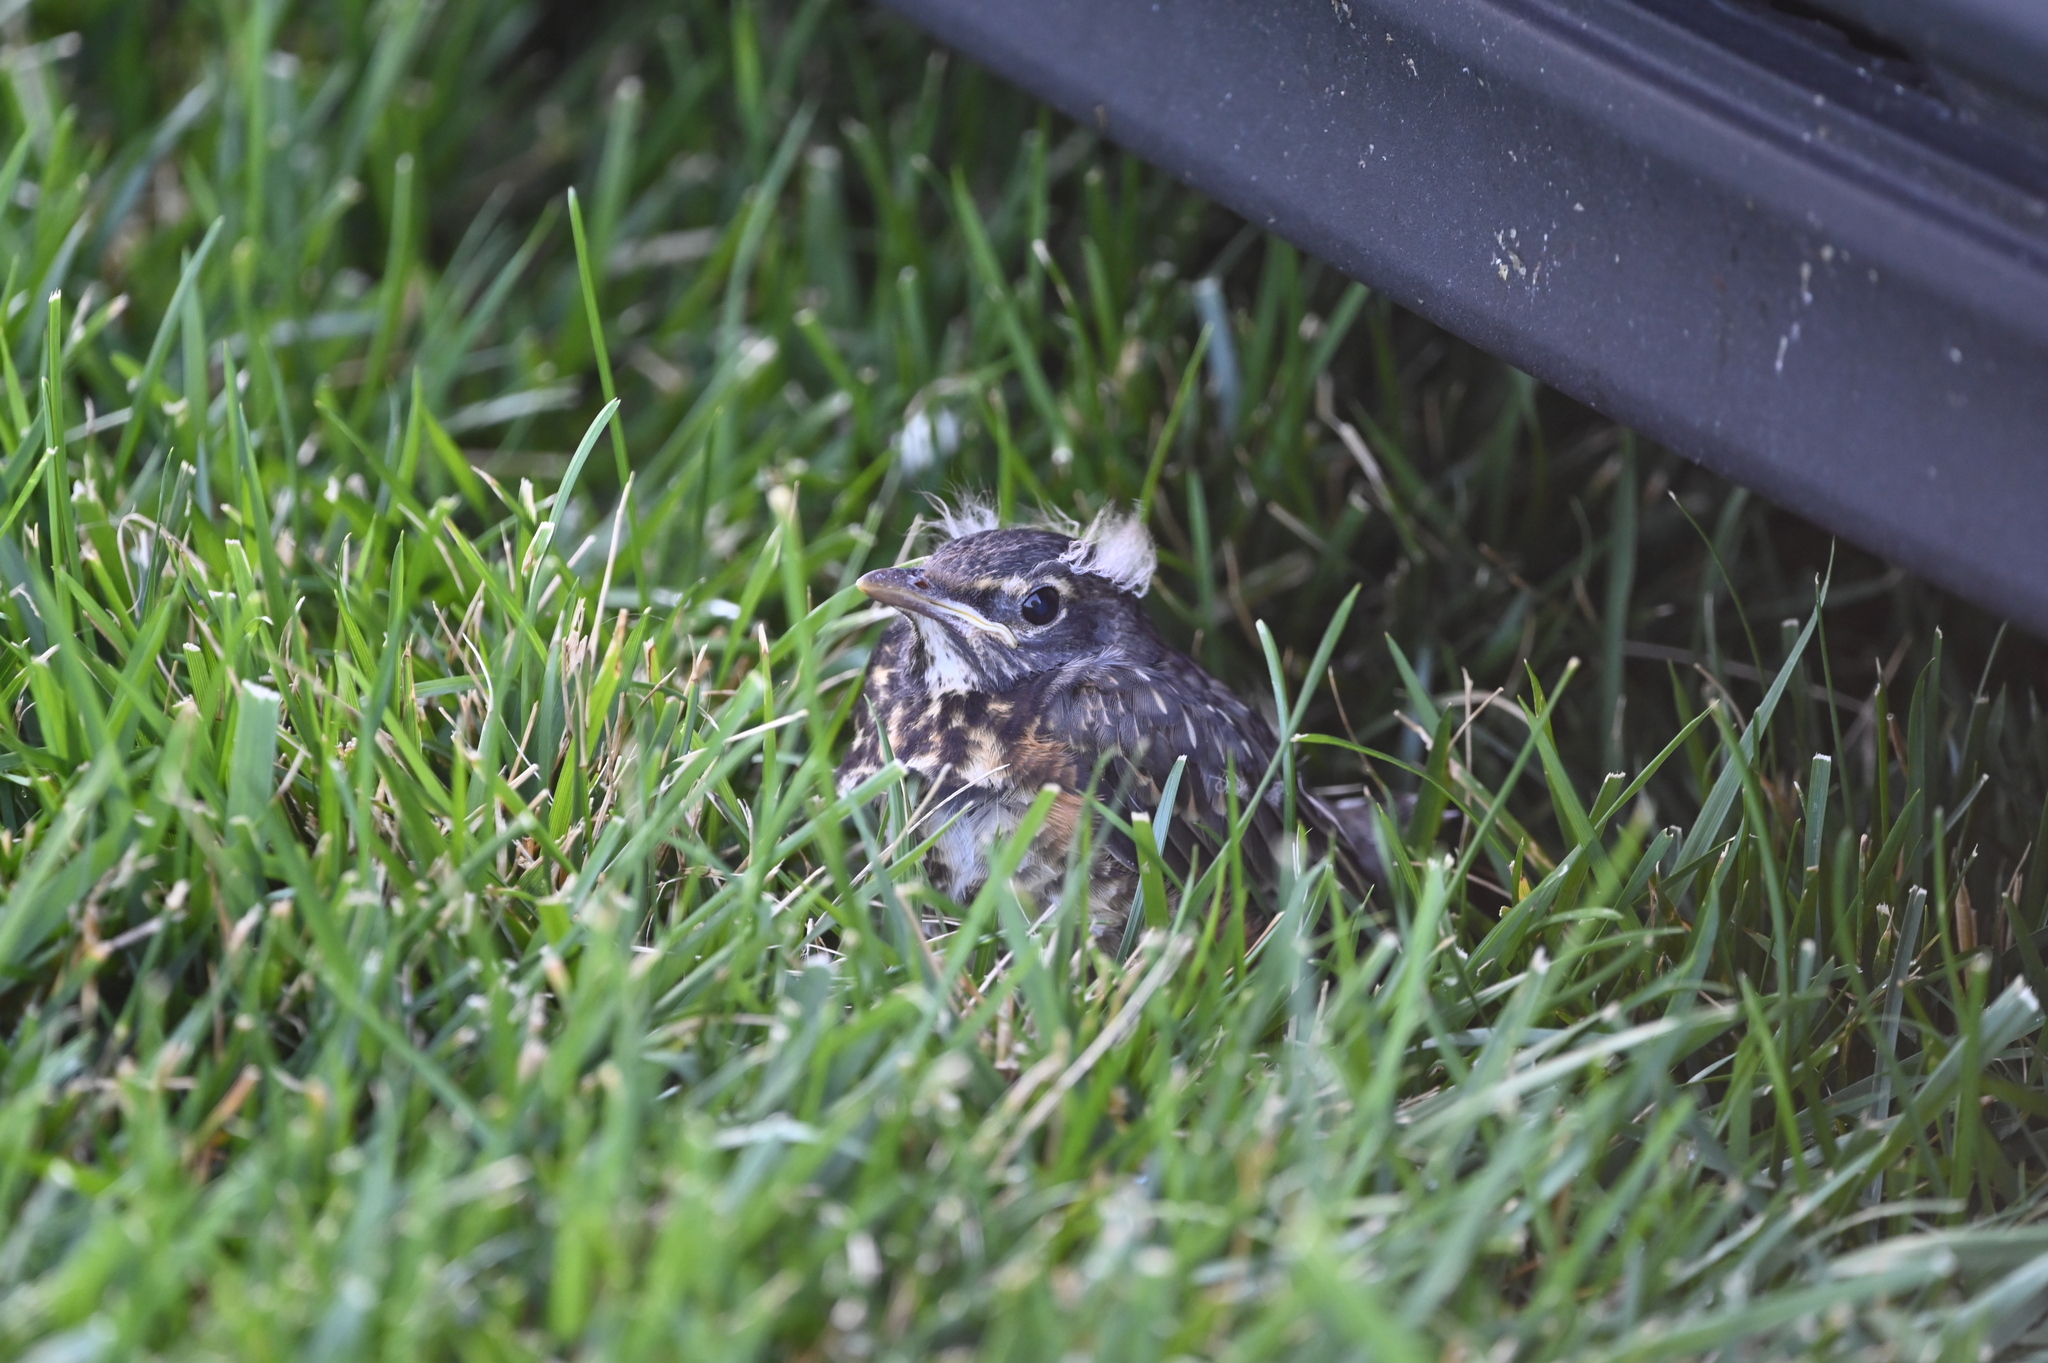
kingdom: Animalia
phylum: Chordata
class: Aves
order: Passeriformes
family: Turdidae
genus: Turdus
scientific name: Turdus migratorius
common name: American robin
